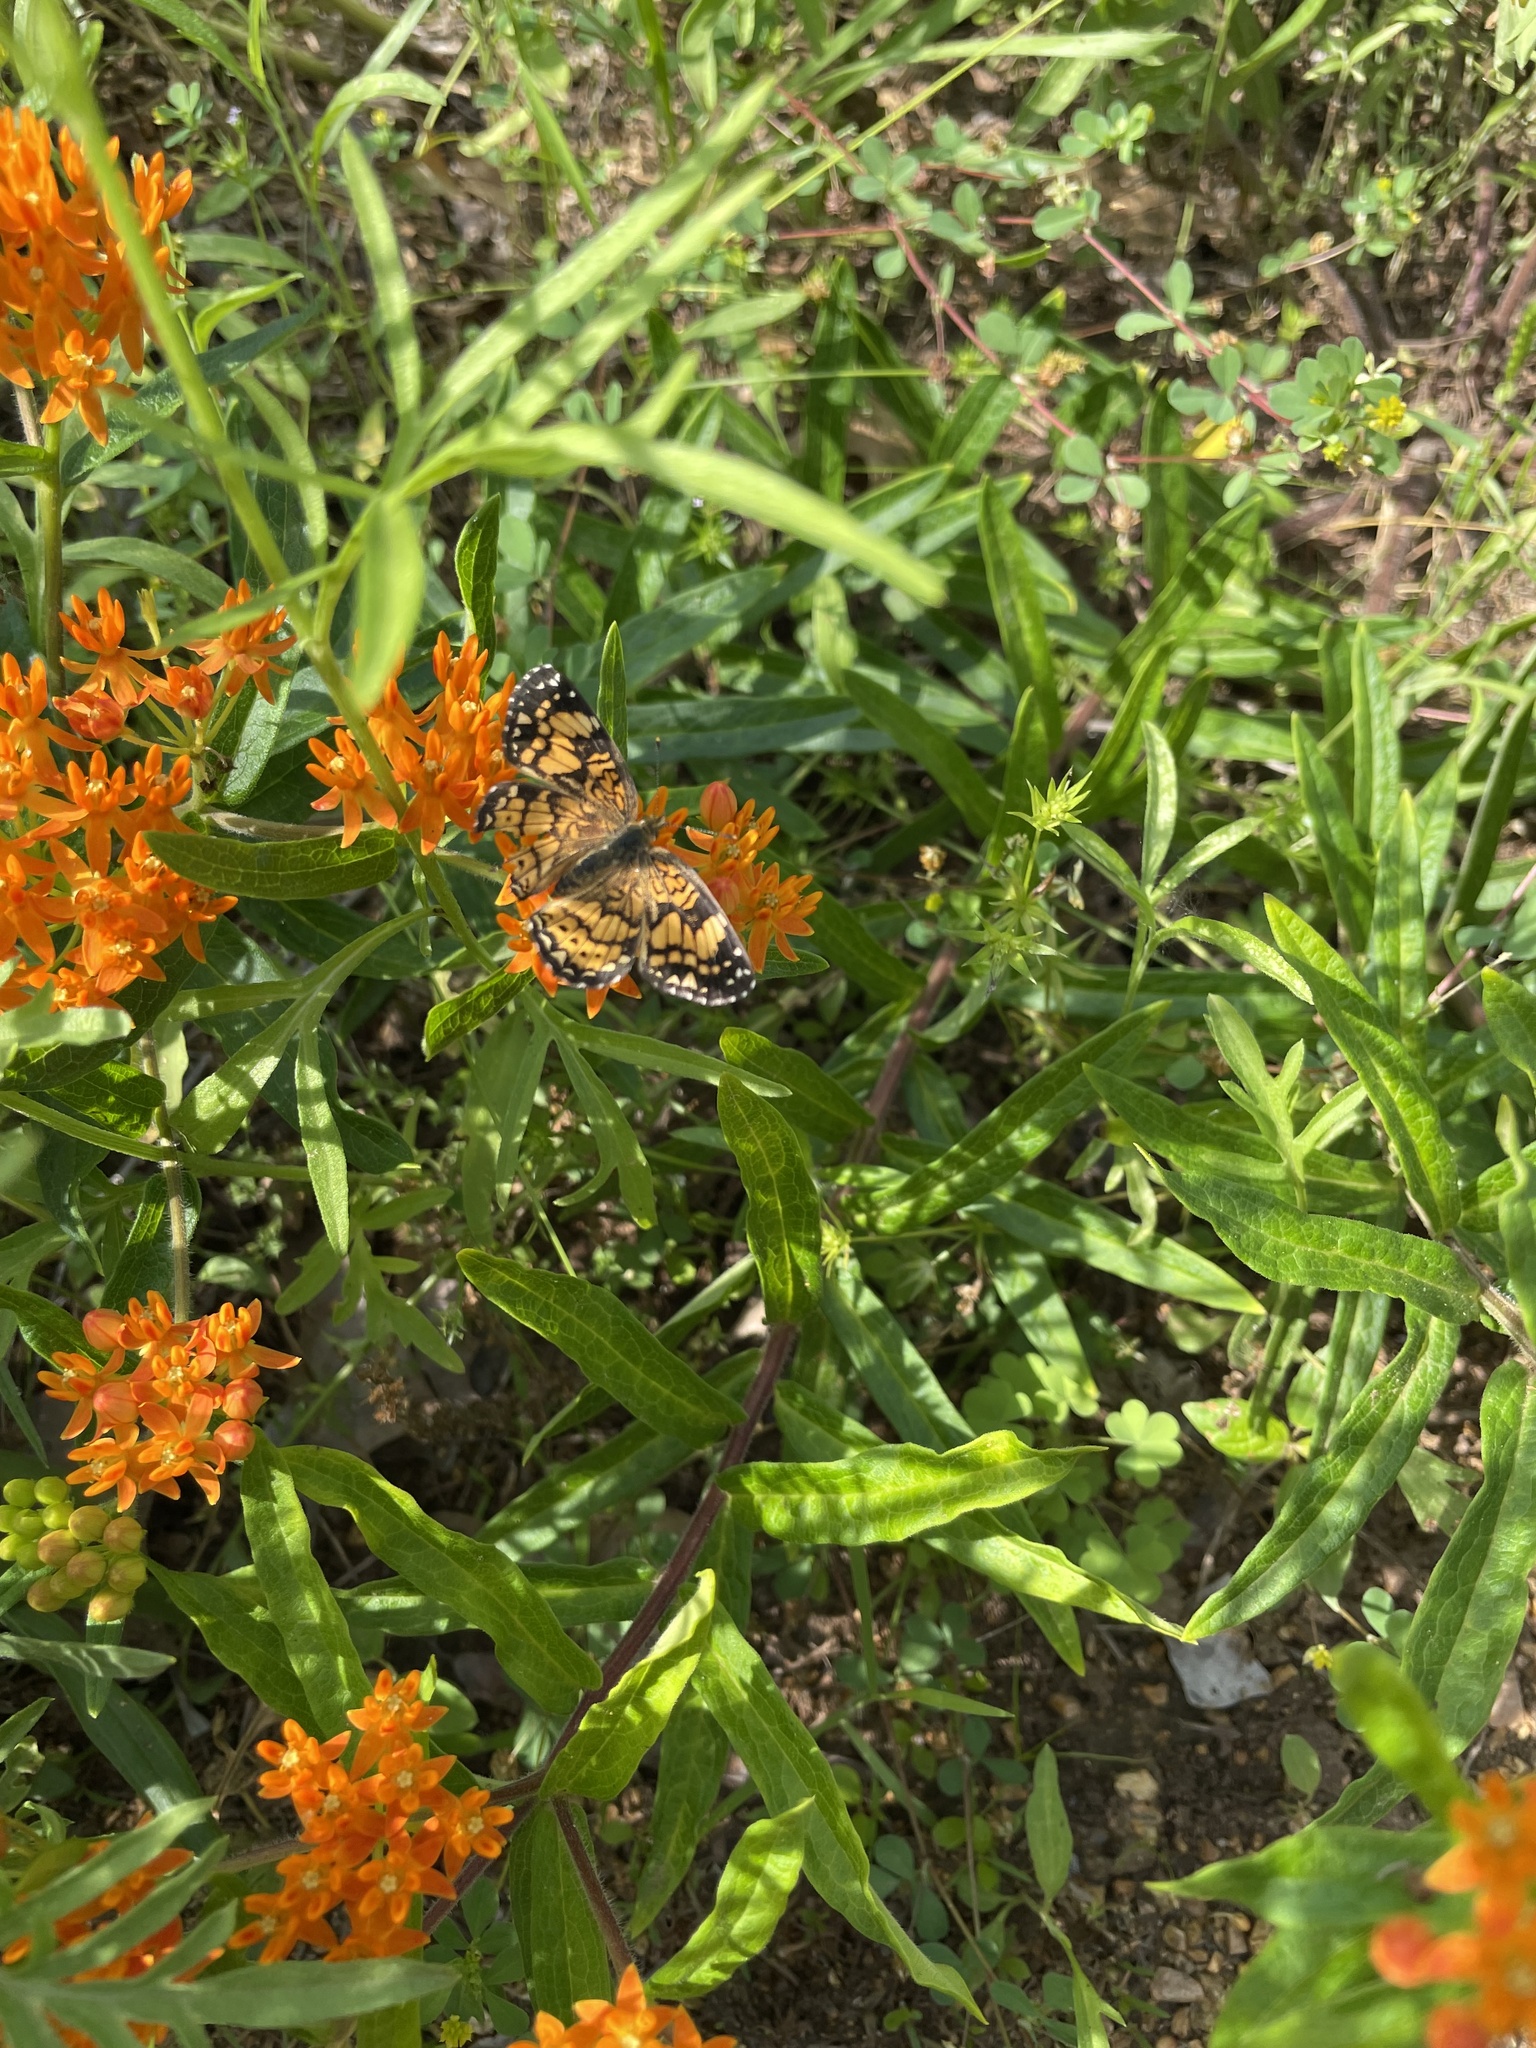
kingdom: Animalia
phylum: Arthropoda
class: Insecta
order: Lepidoptera
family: Nymphalidae
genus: Chlosyne
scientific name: Chlosyne gorgone
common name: Gorgone checkerspot
